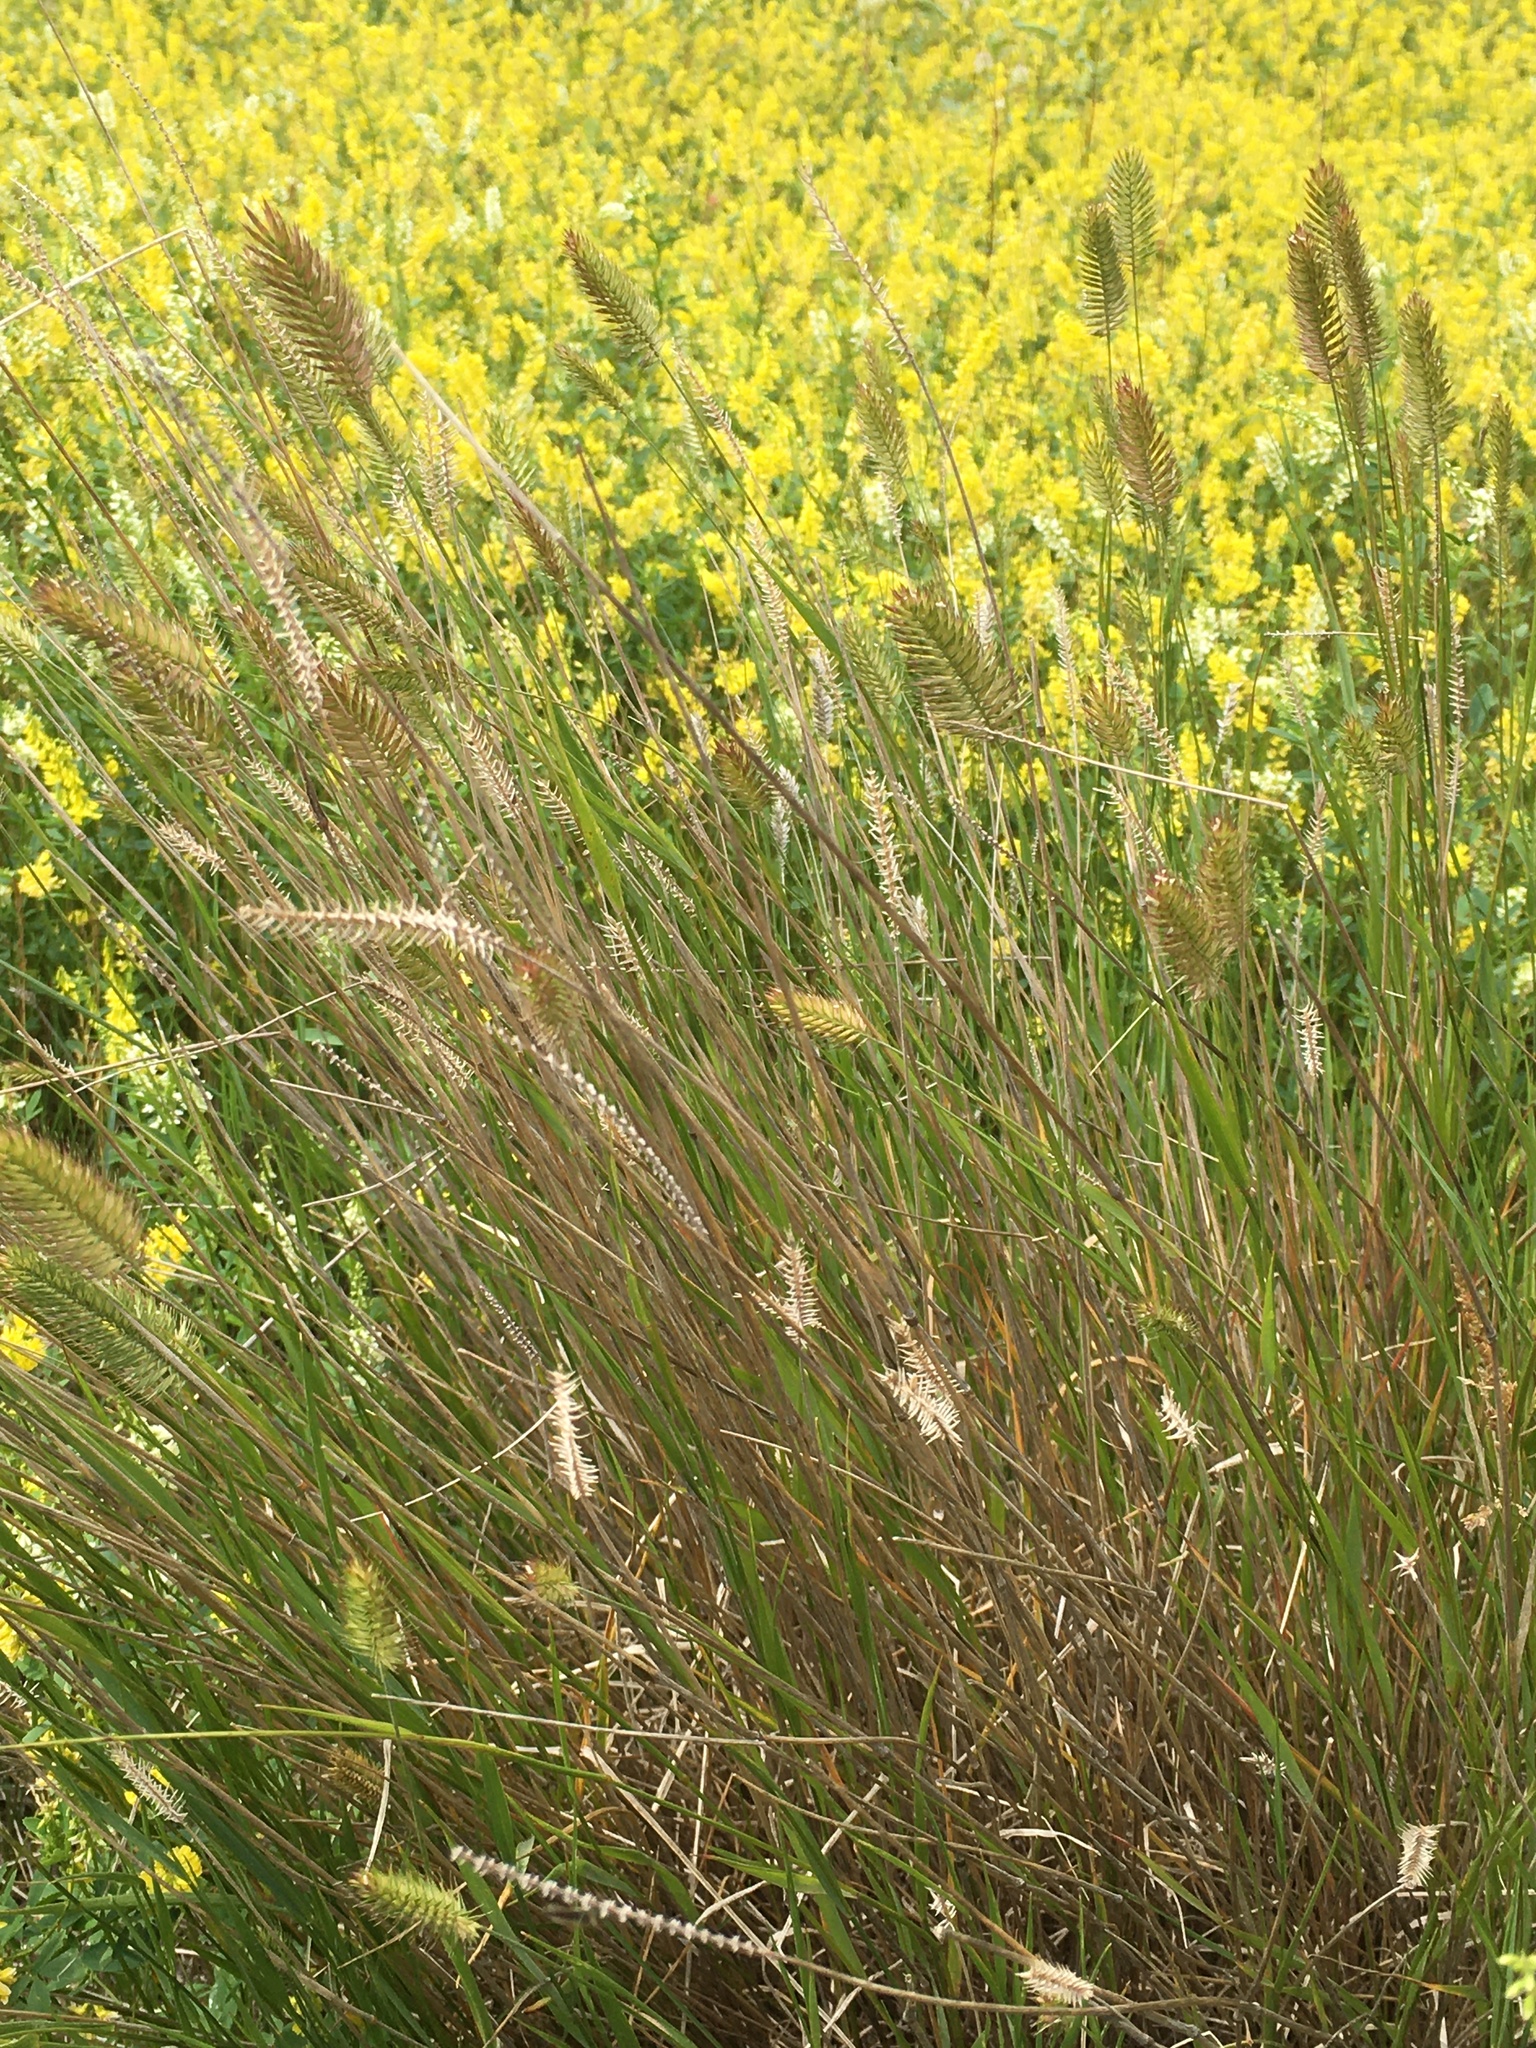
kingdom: Plantae
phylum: Tracheophyta
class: Liliopsida
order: Poales
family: Poaceae
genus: Agropyron
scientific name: Agropyron cristatum
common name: Crested wheatgrass
